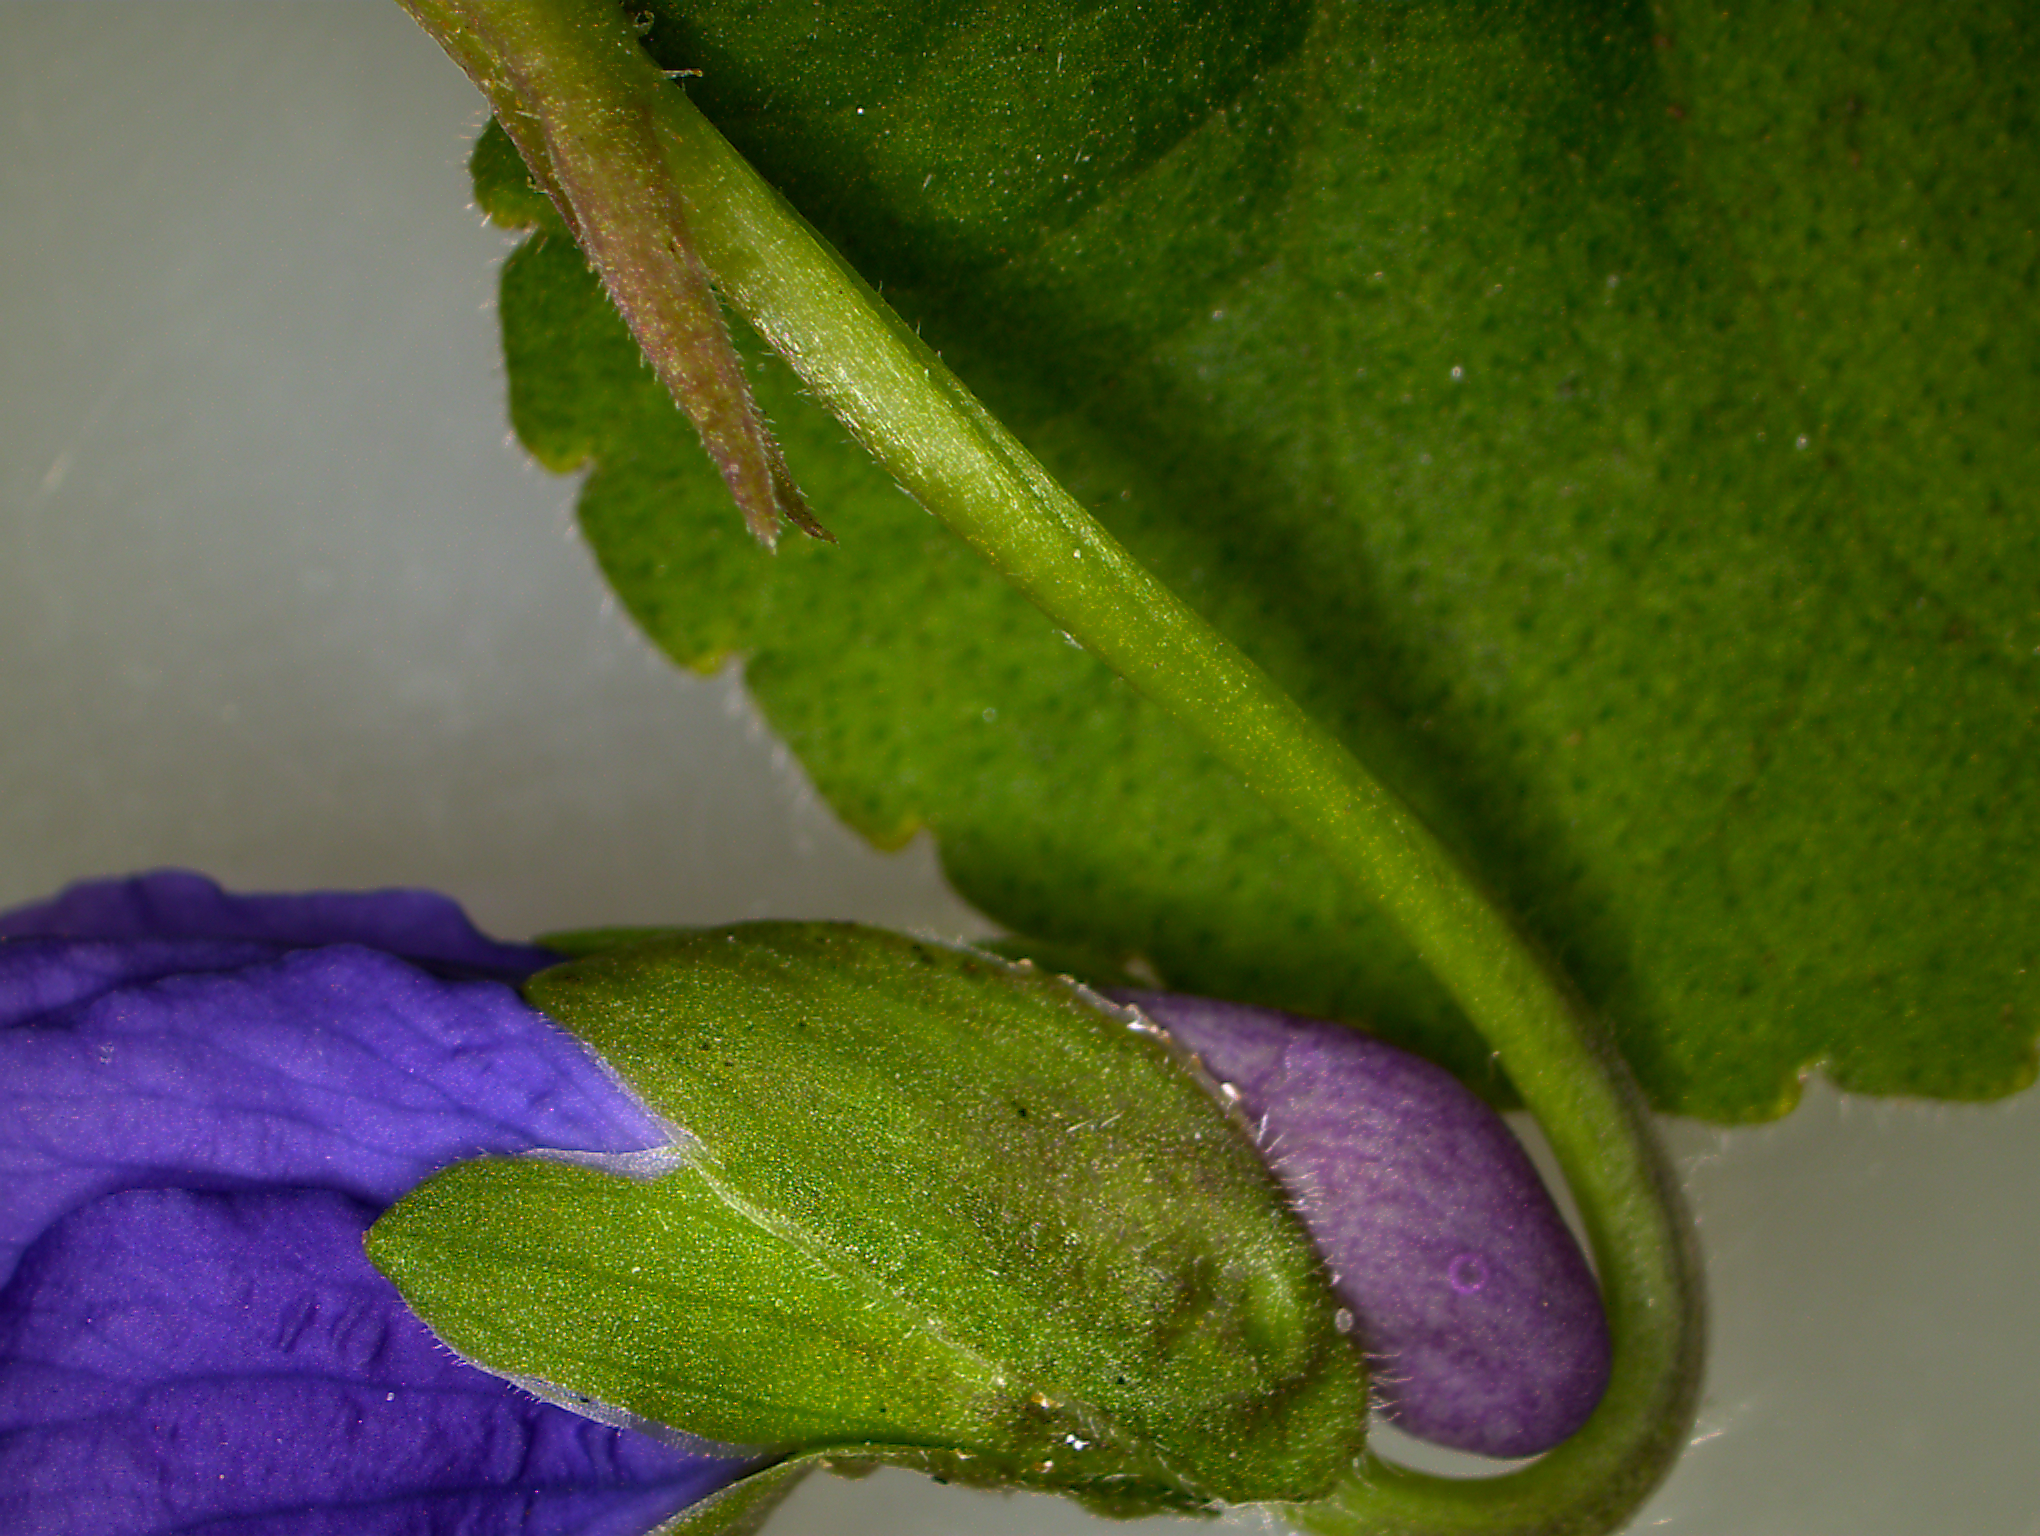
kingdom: Plantae
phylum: Tracheophyta
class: Magnoliopsida
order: Malpighiales
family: Violaceae
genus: Viola
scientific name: Viola odorata
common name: Sweet violet
